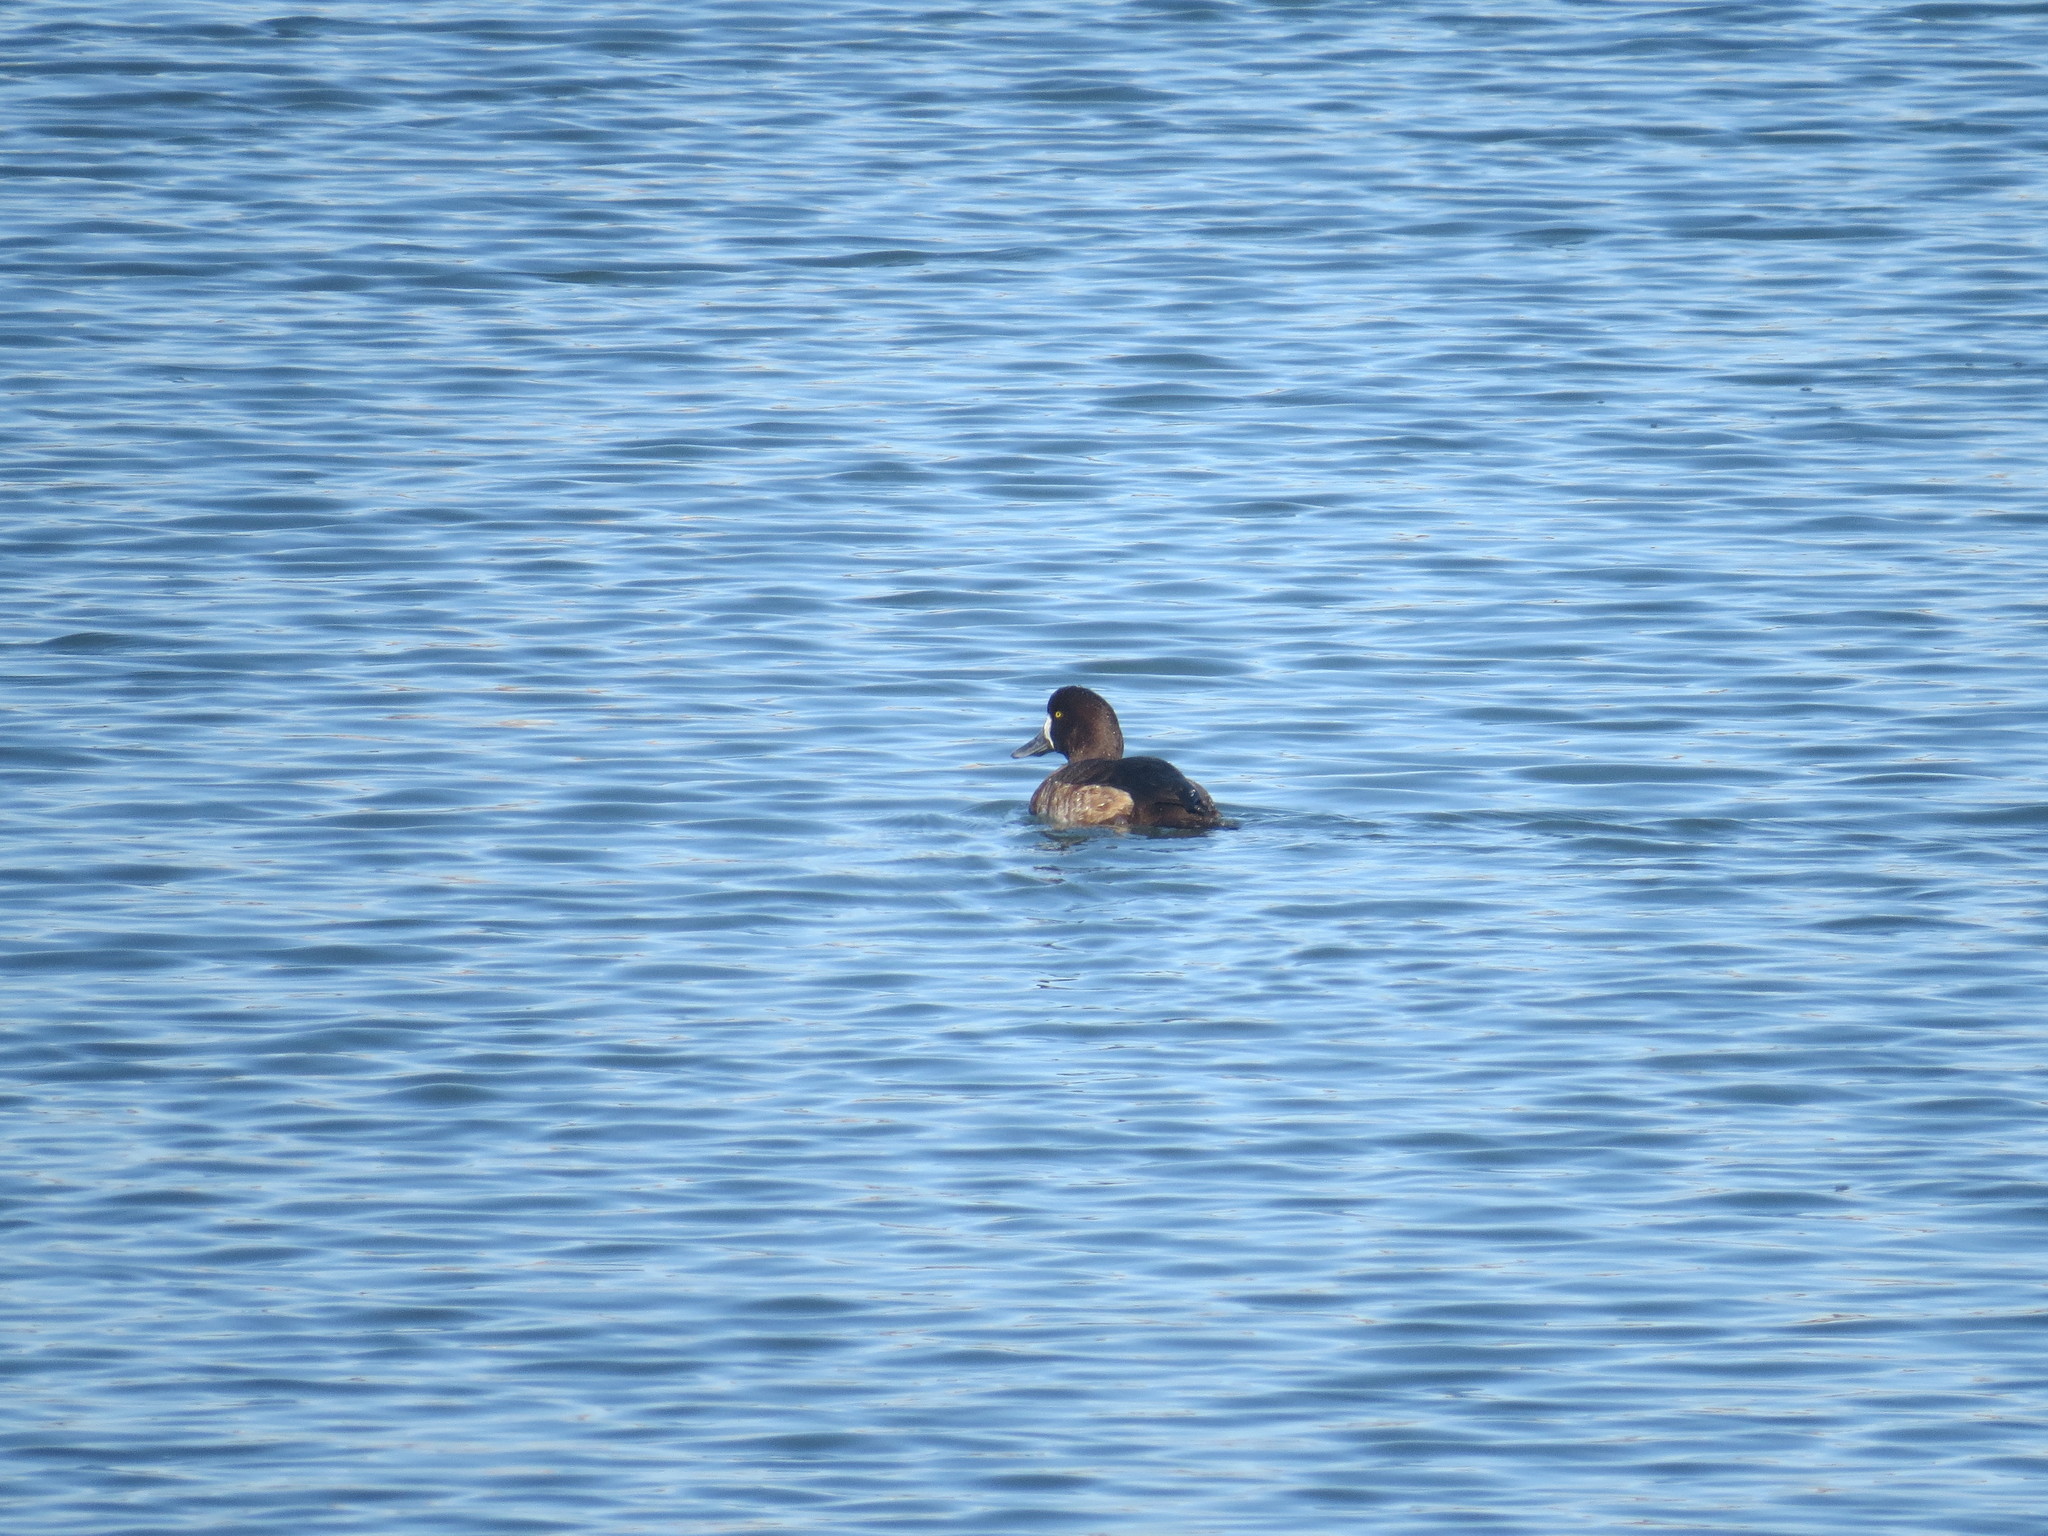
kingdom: Animalia
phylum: Chordata
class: Aves
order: Anseriformes
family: Anatidae
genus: Aythya
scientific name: Aythya marila
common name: Greater scaup
